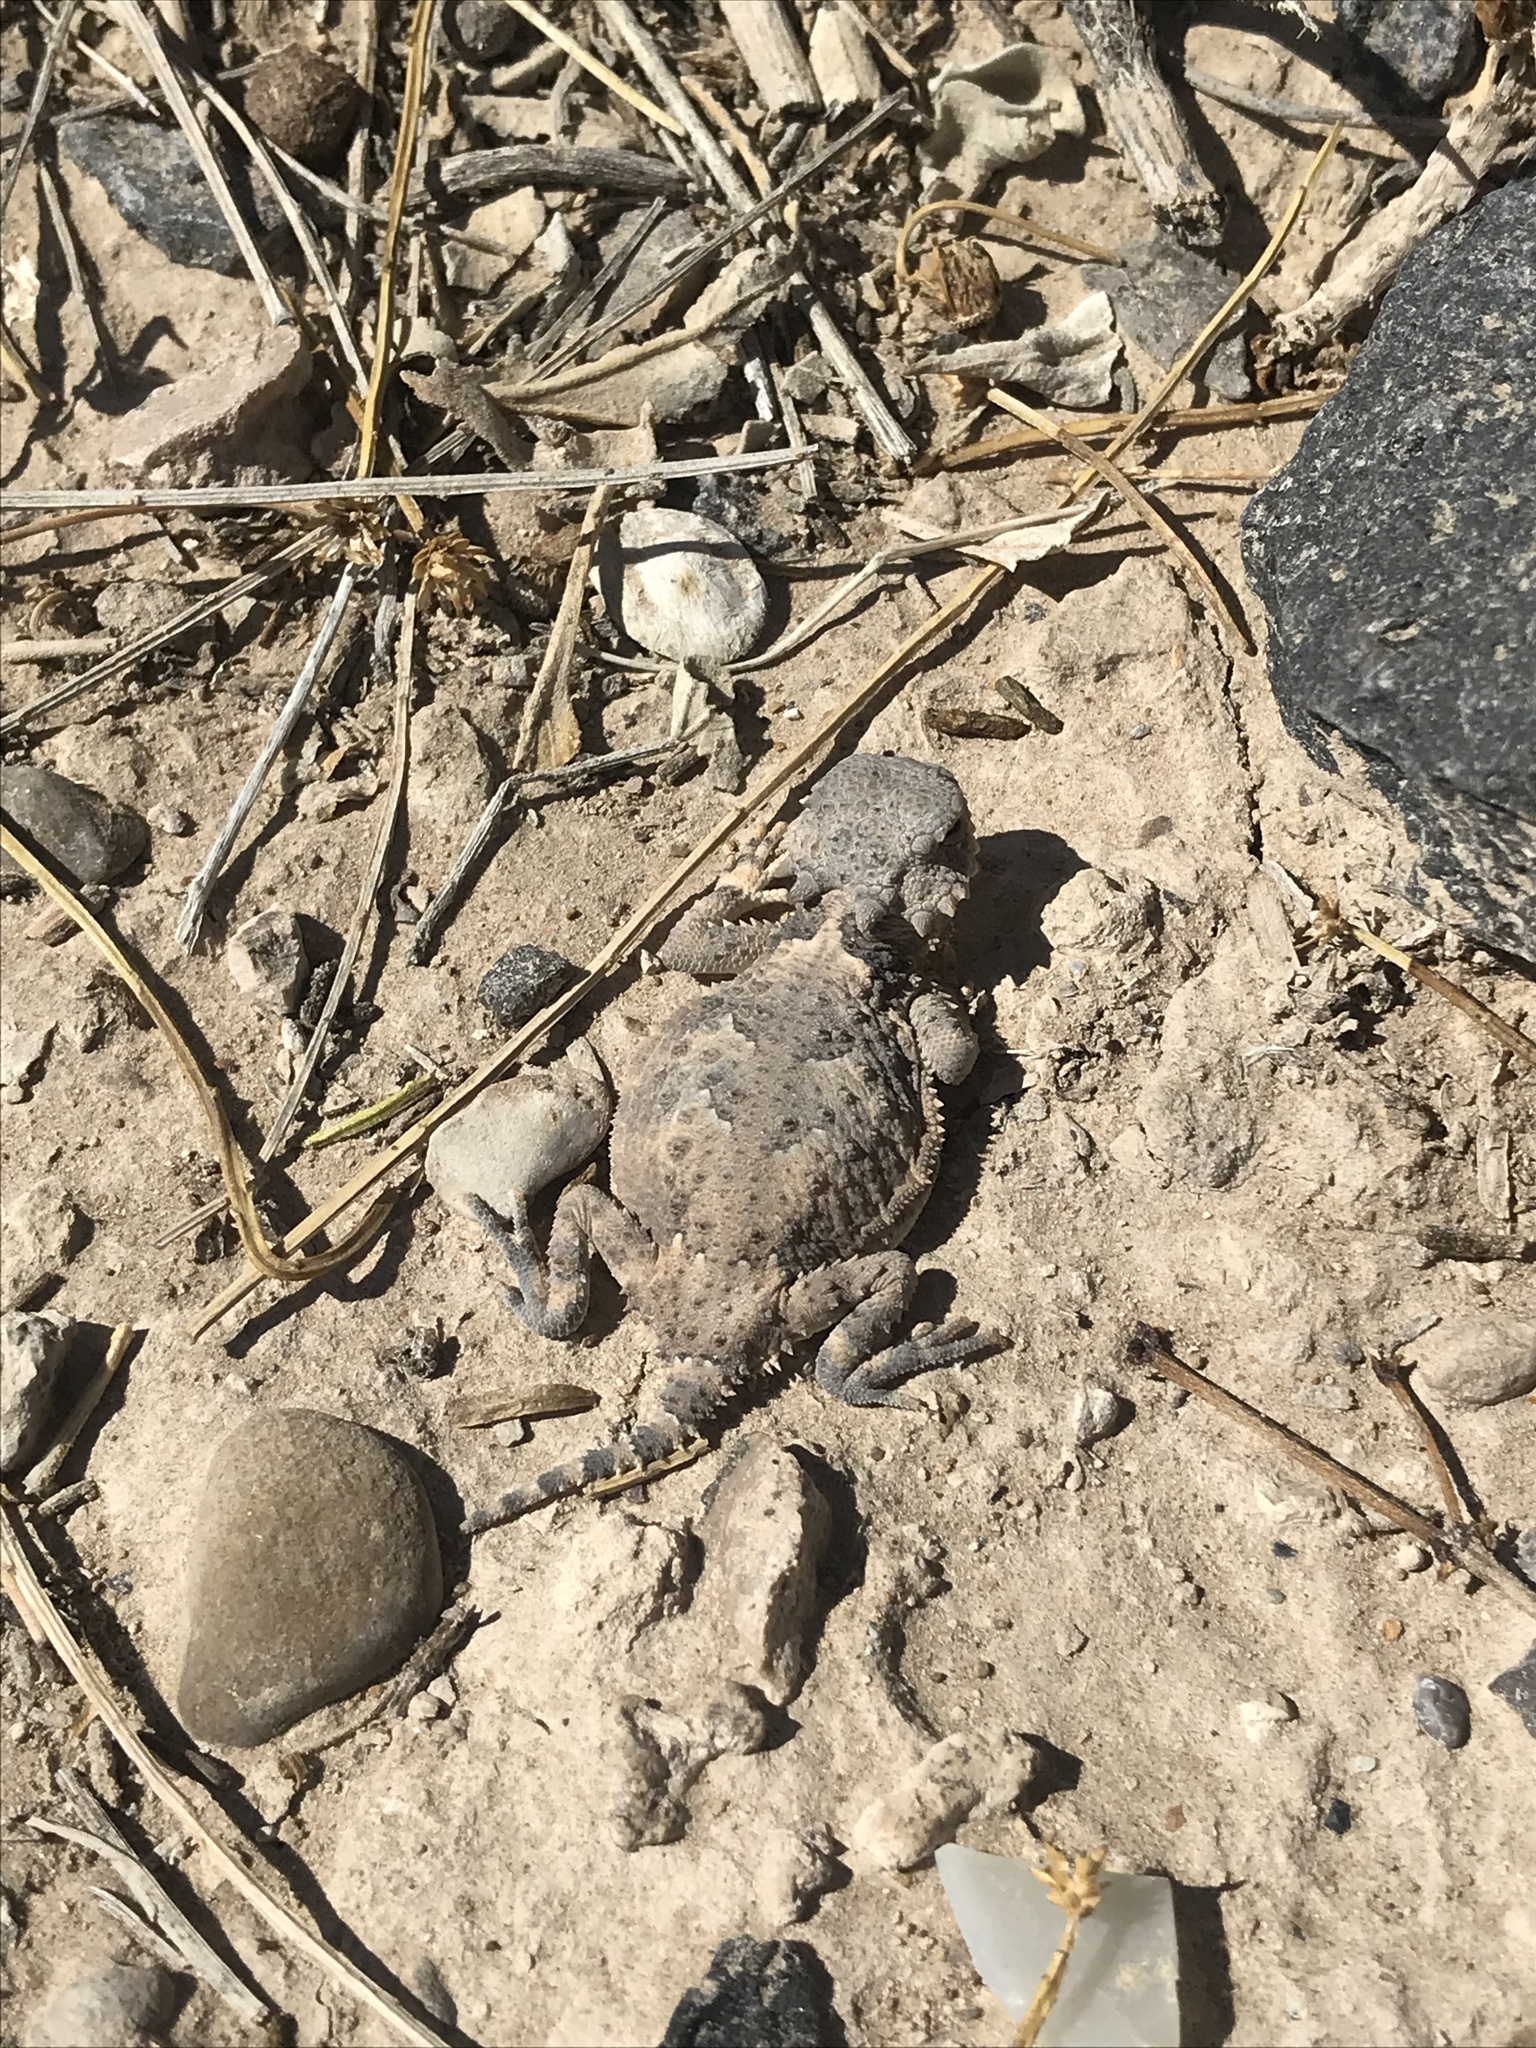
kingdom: Animalia
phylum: Chordata
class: Squamata
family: Phrynosomatidae
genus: Phrynosoma
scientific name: Phrynosoma platyrhinos
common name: Desert horned lizard
